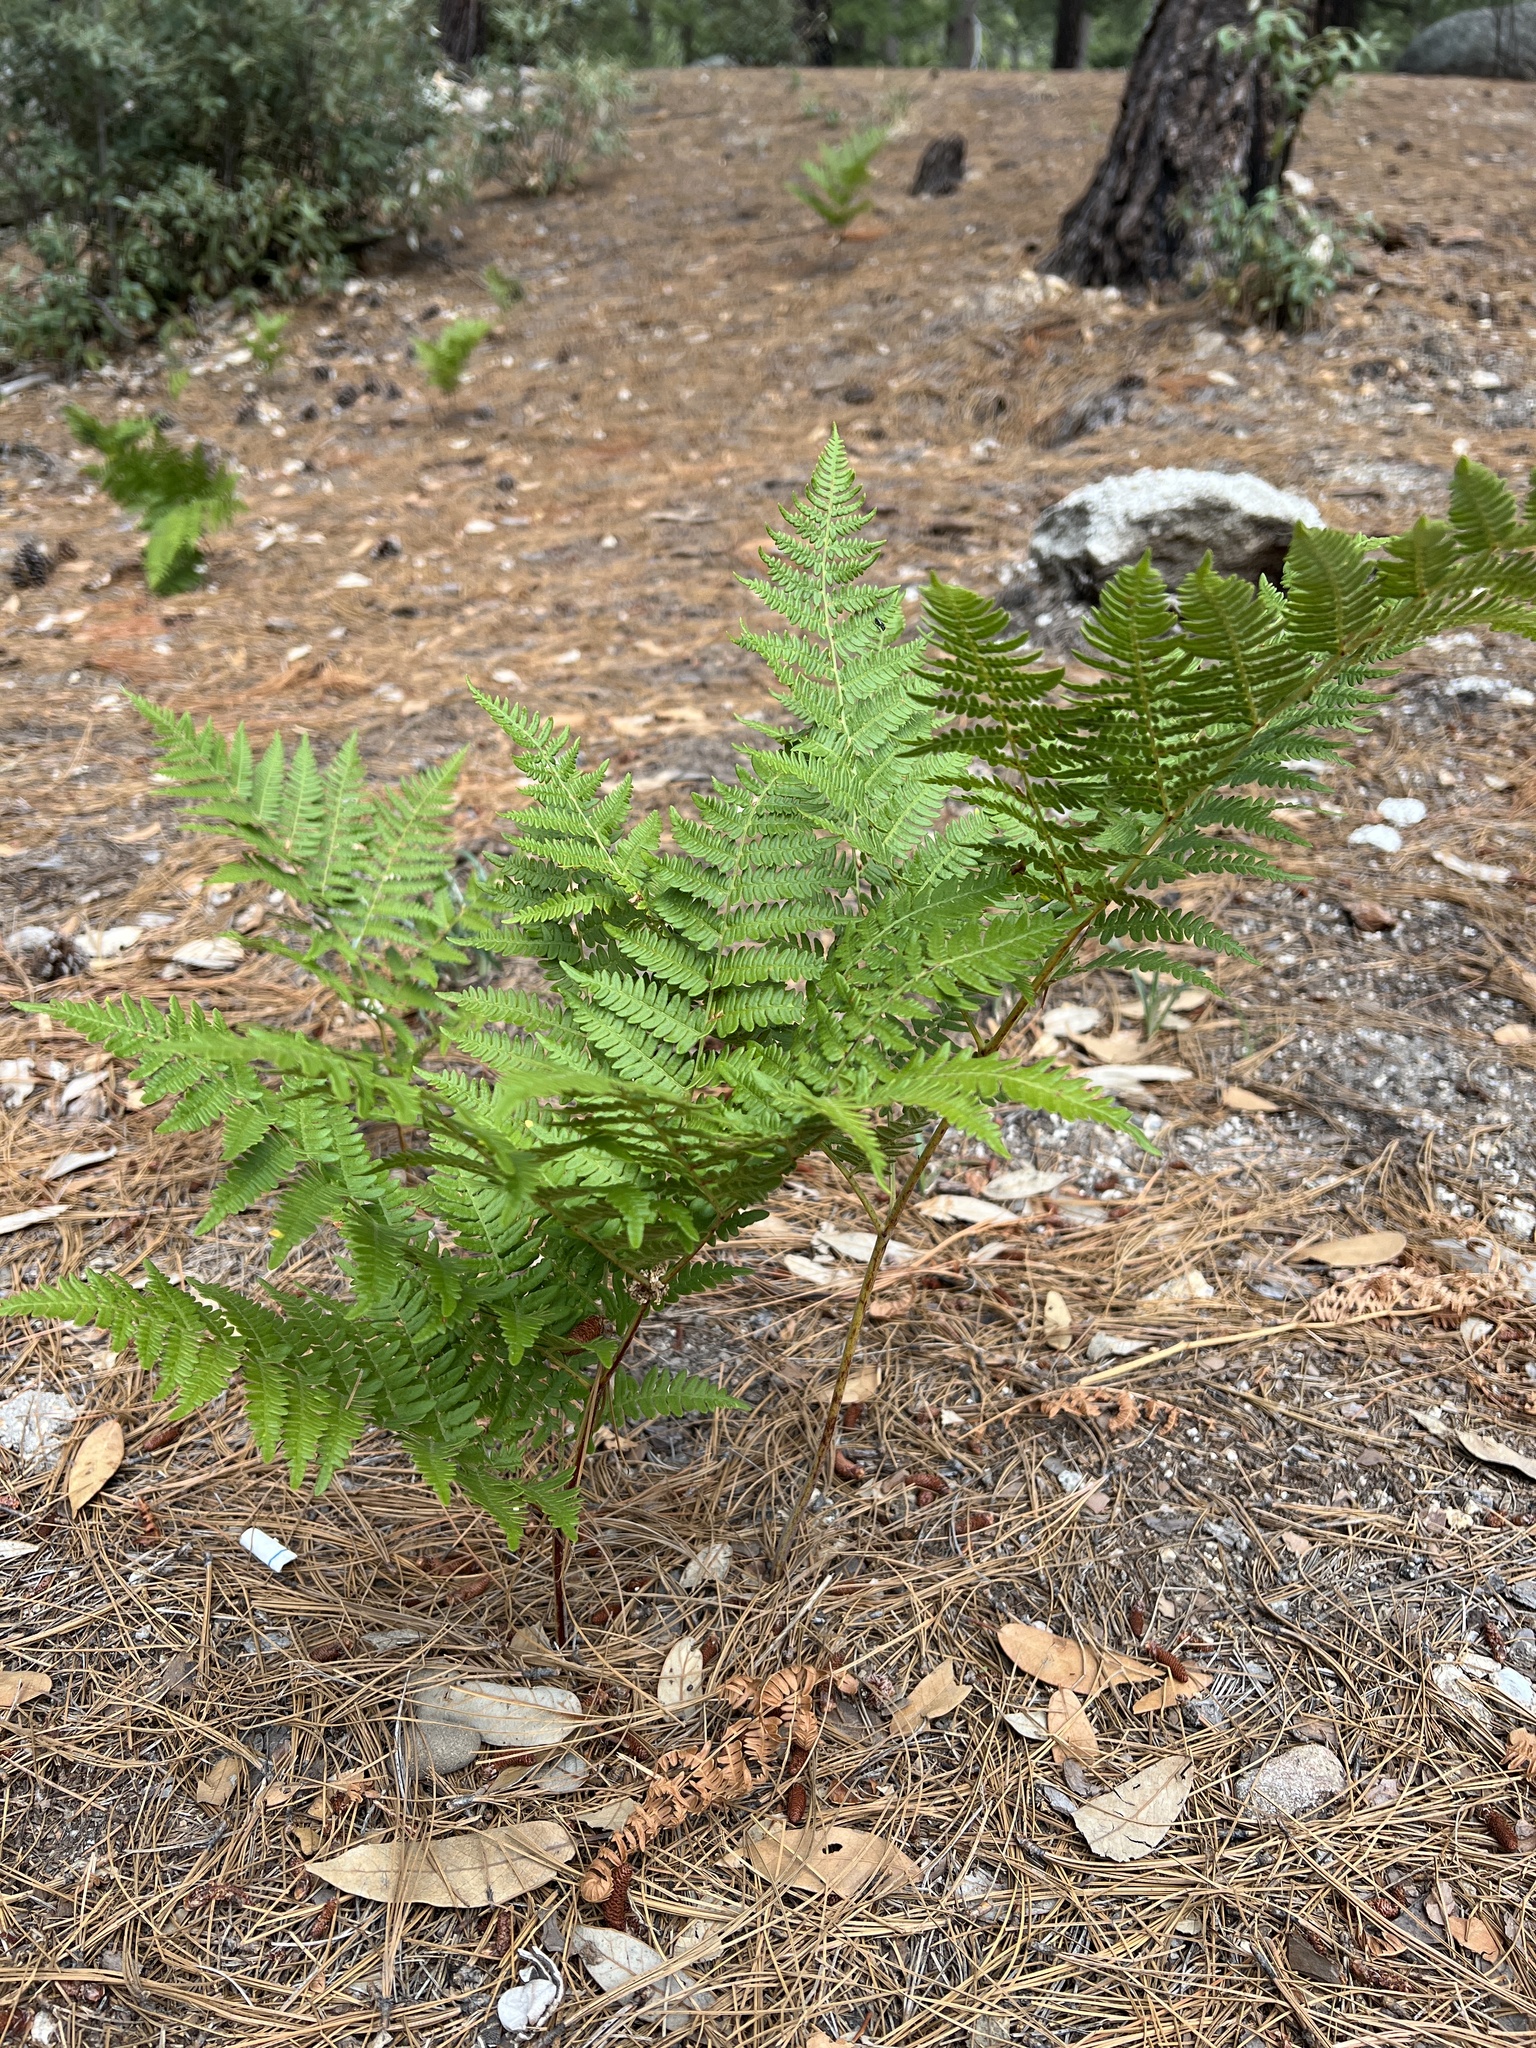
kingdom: Plantae
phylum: Tracheophyta
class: Polypodiopsida
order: Polypodiales
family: Dennstaedtiaceae
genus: Pteridium
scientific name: Pteridium aquilinum
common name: Bracken
